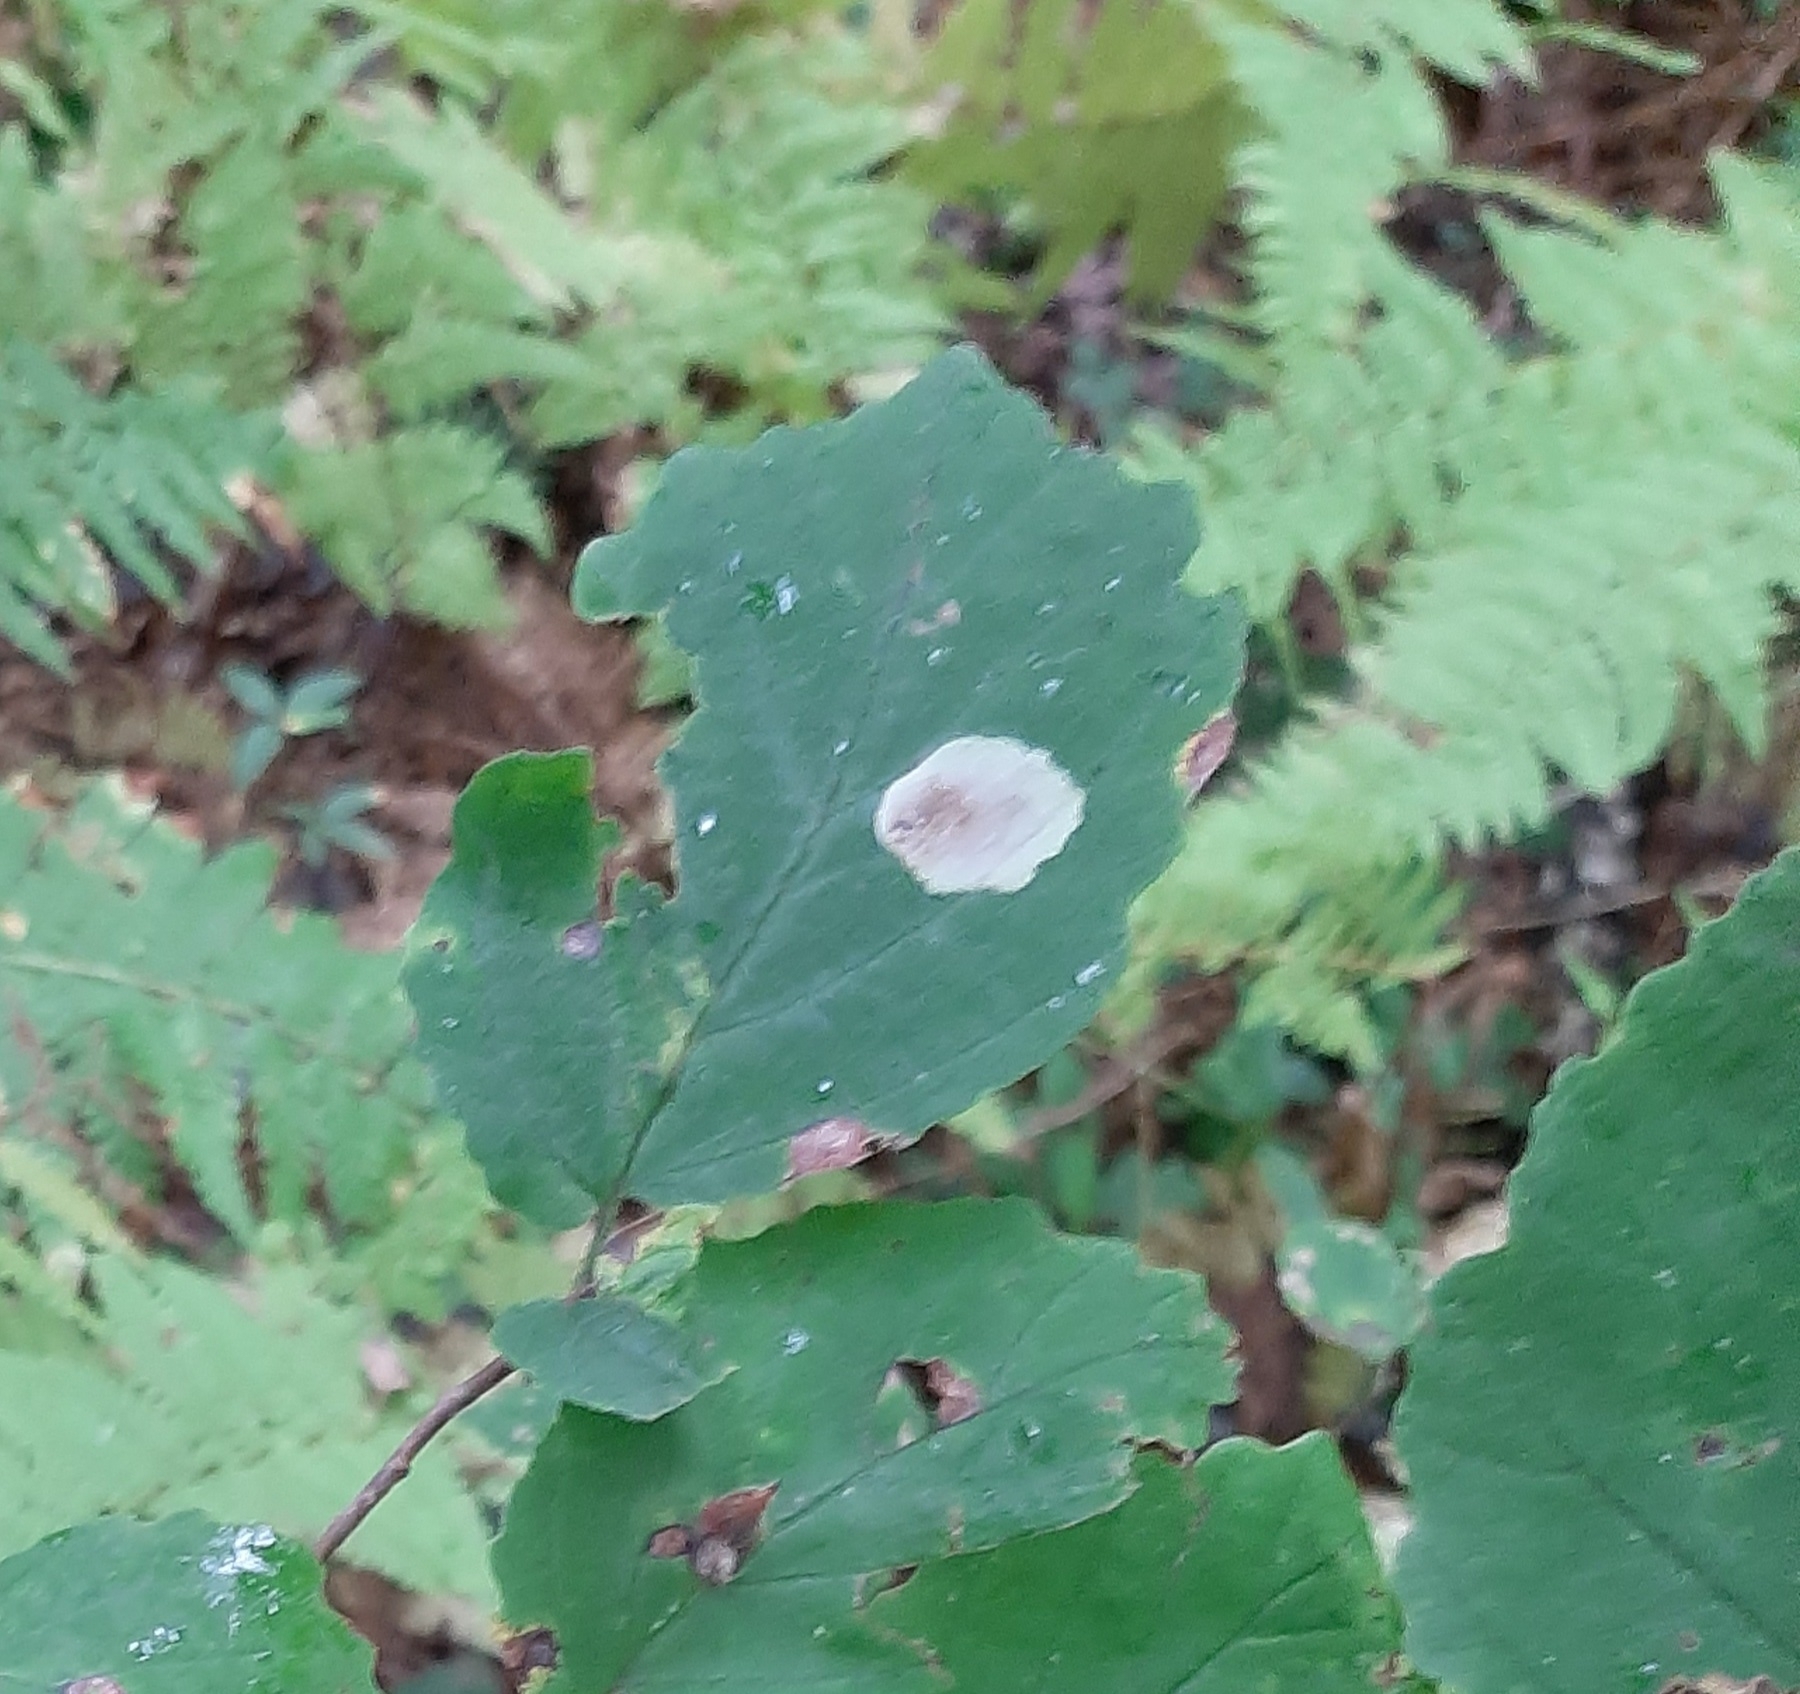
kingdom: Animalia
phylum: Arthropoda
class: Insecta
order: Lepidoptera
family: Gracillariidae
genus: Cameraria
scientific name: Cameraria hamameliella
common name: Witchhazel leafminer
